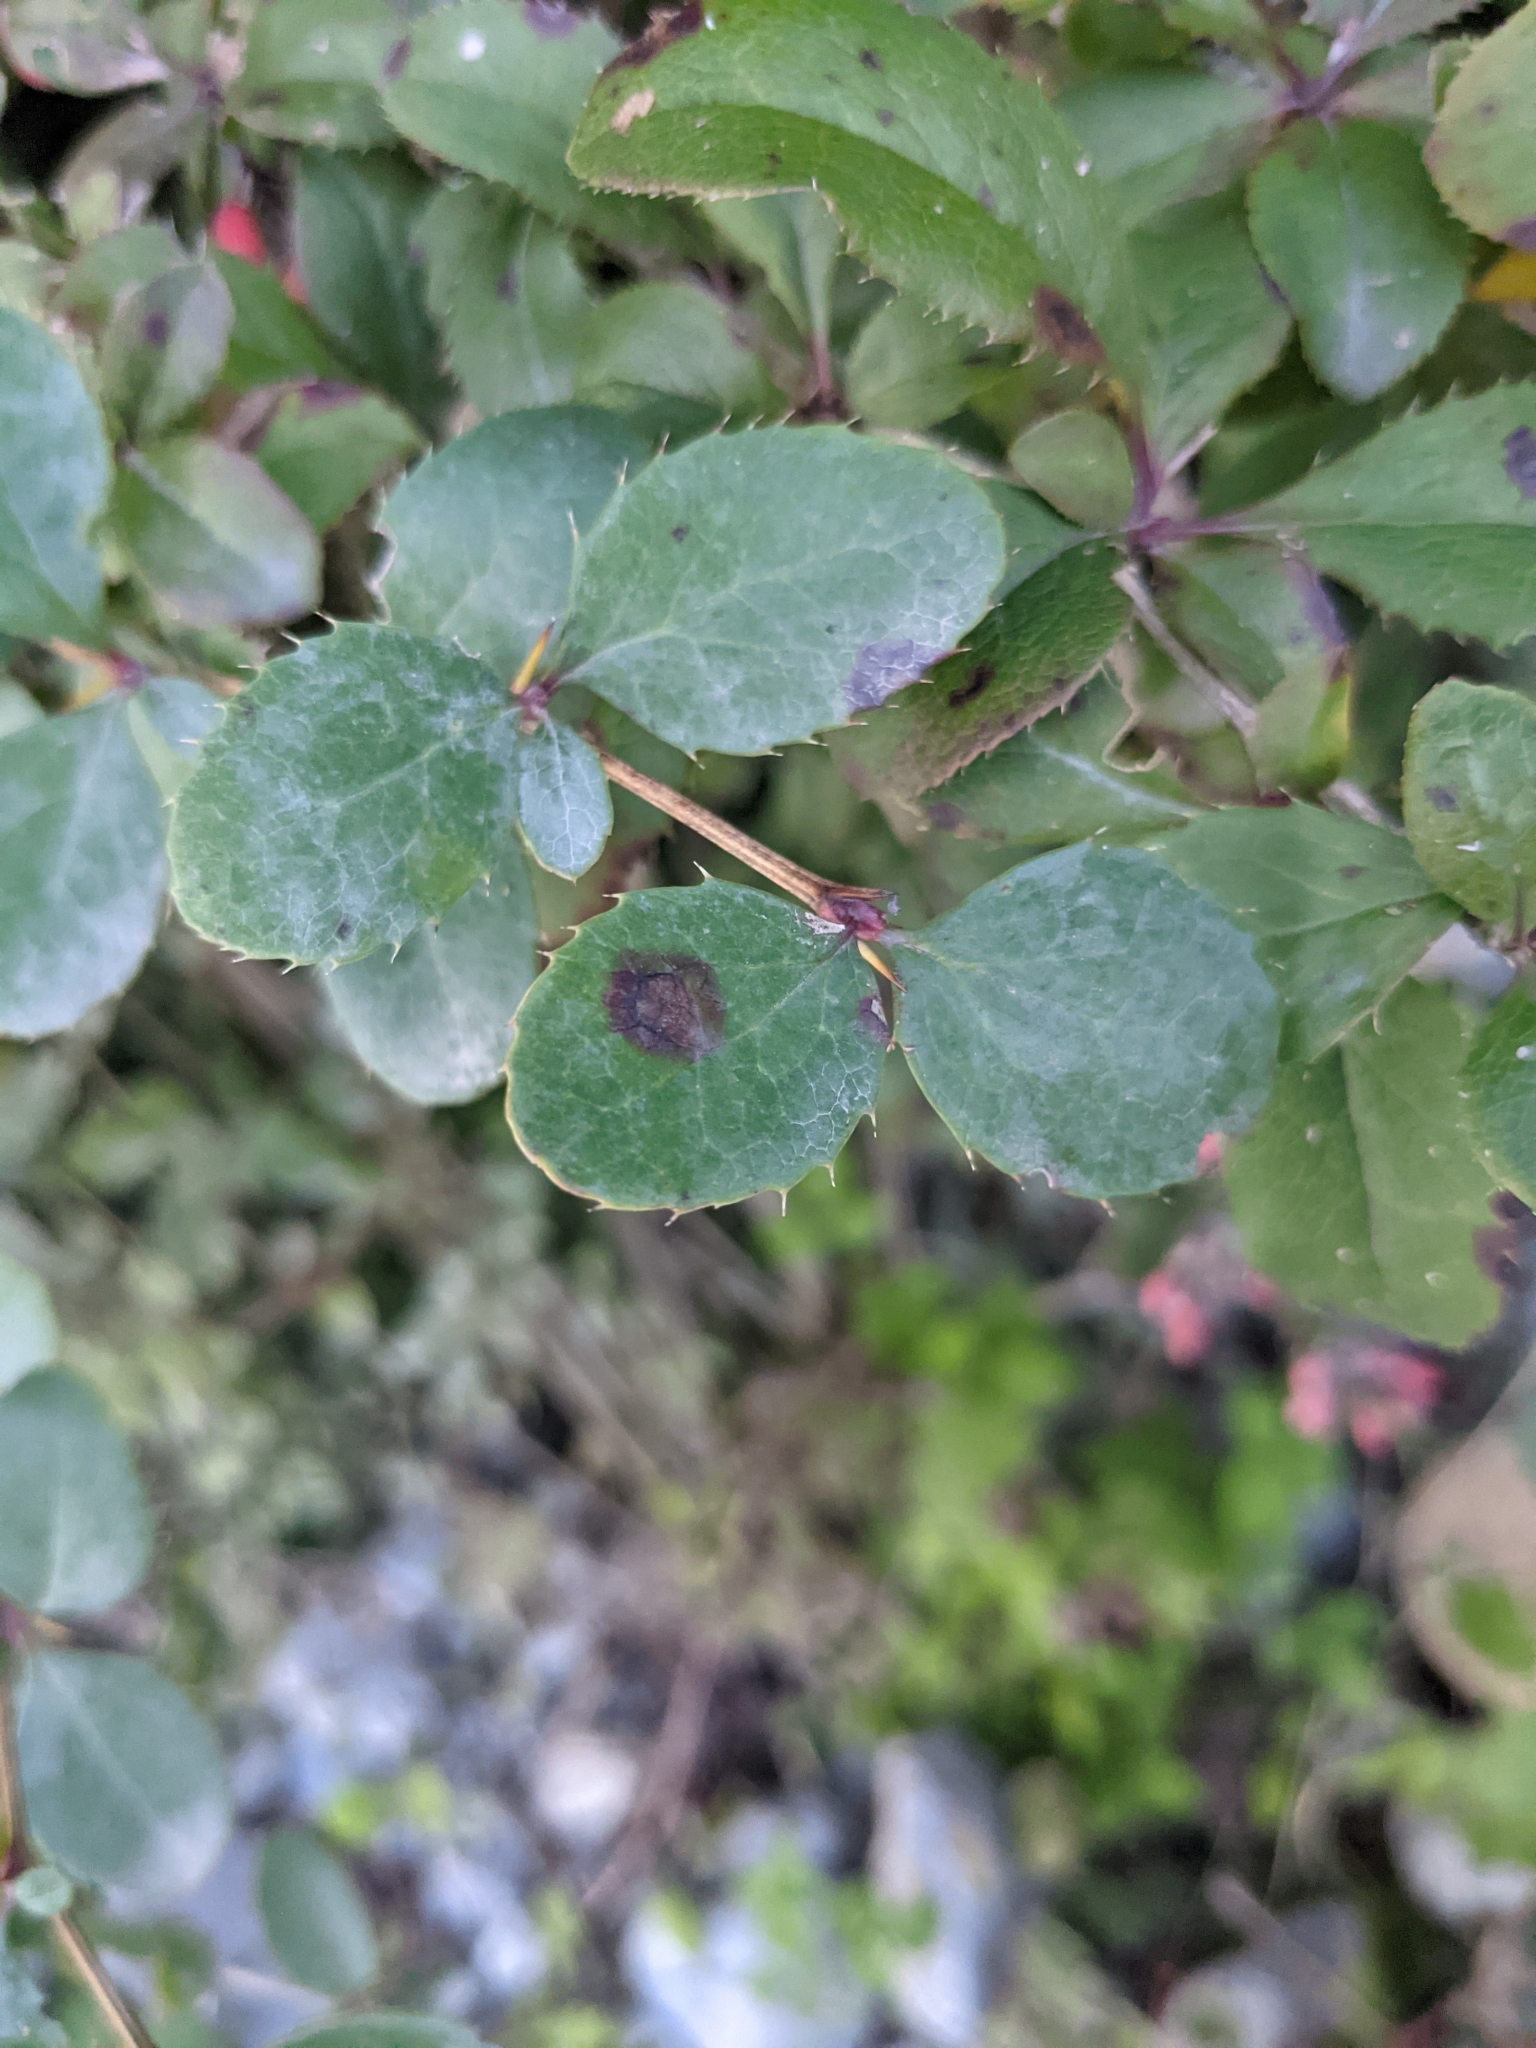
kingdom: Plantae
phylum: Tracheophyta
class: Magnoliopsida
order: Ranunculales
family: Berberidaceae
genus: Berberis
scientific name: Berberis vulgaris
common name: Barberry
